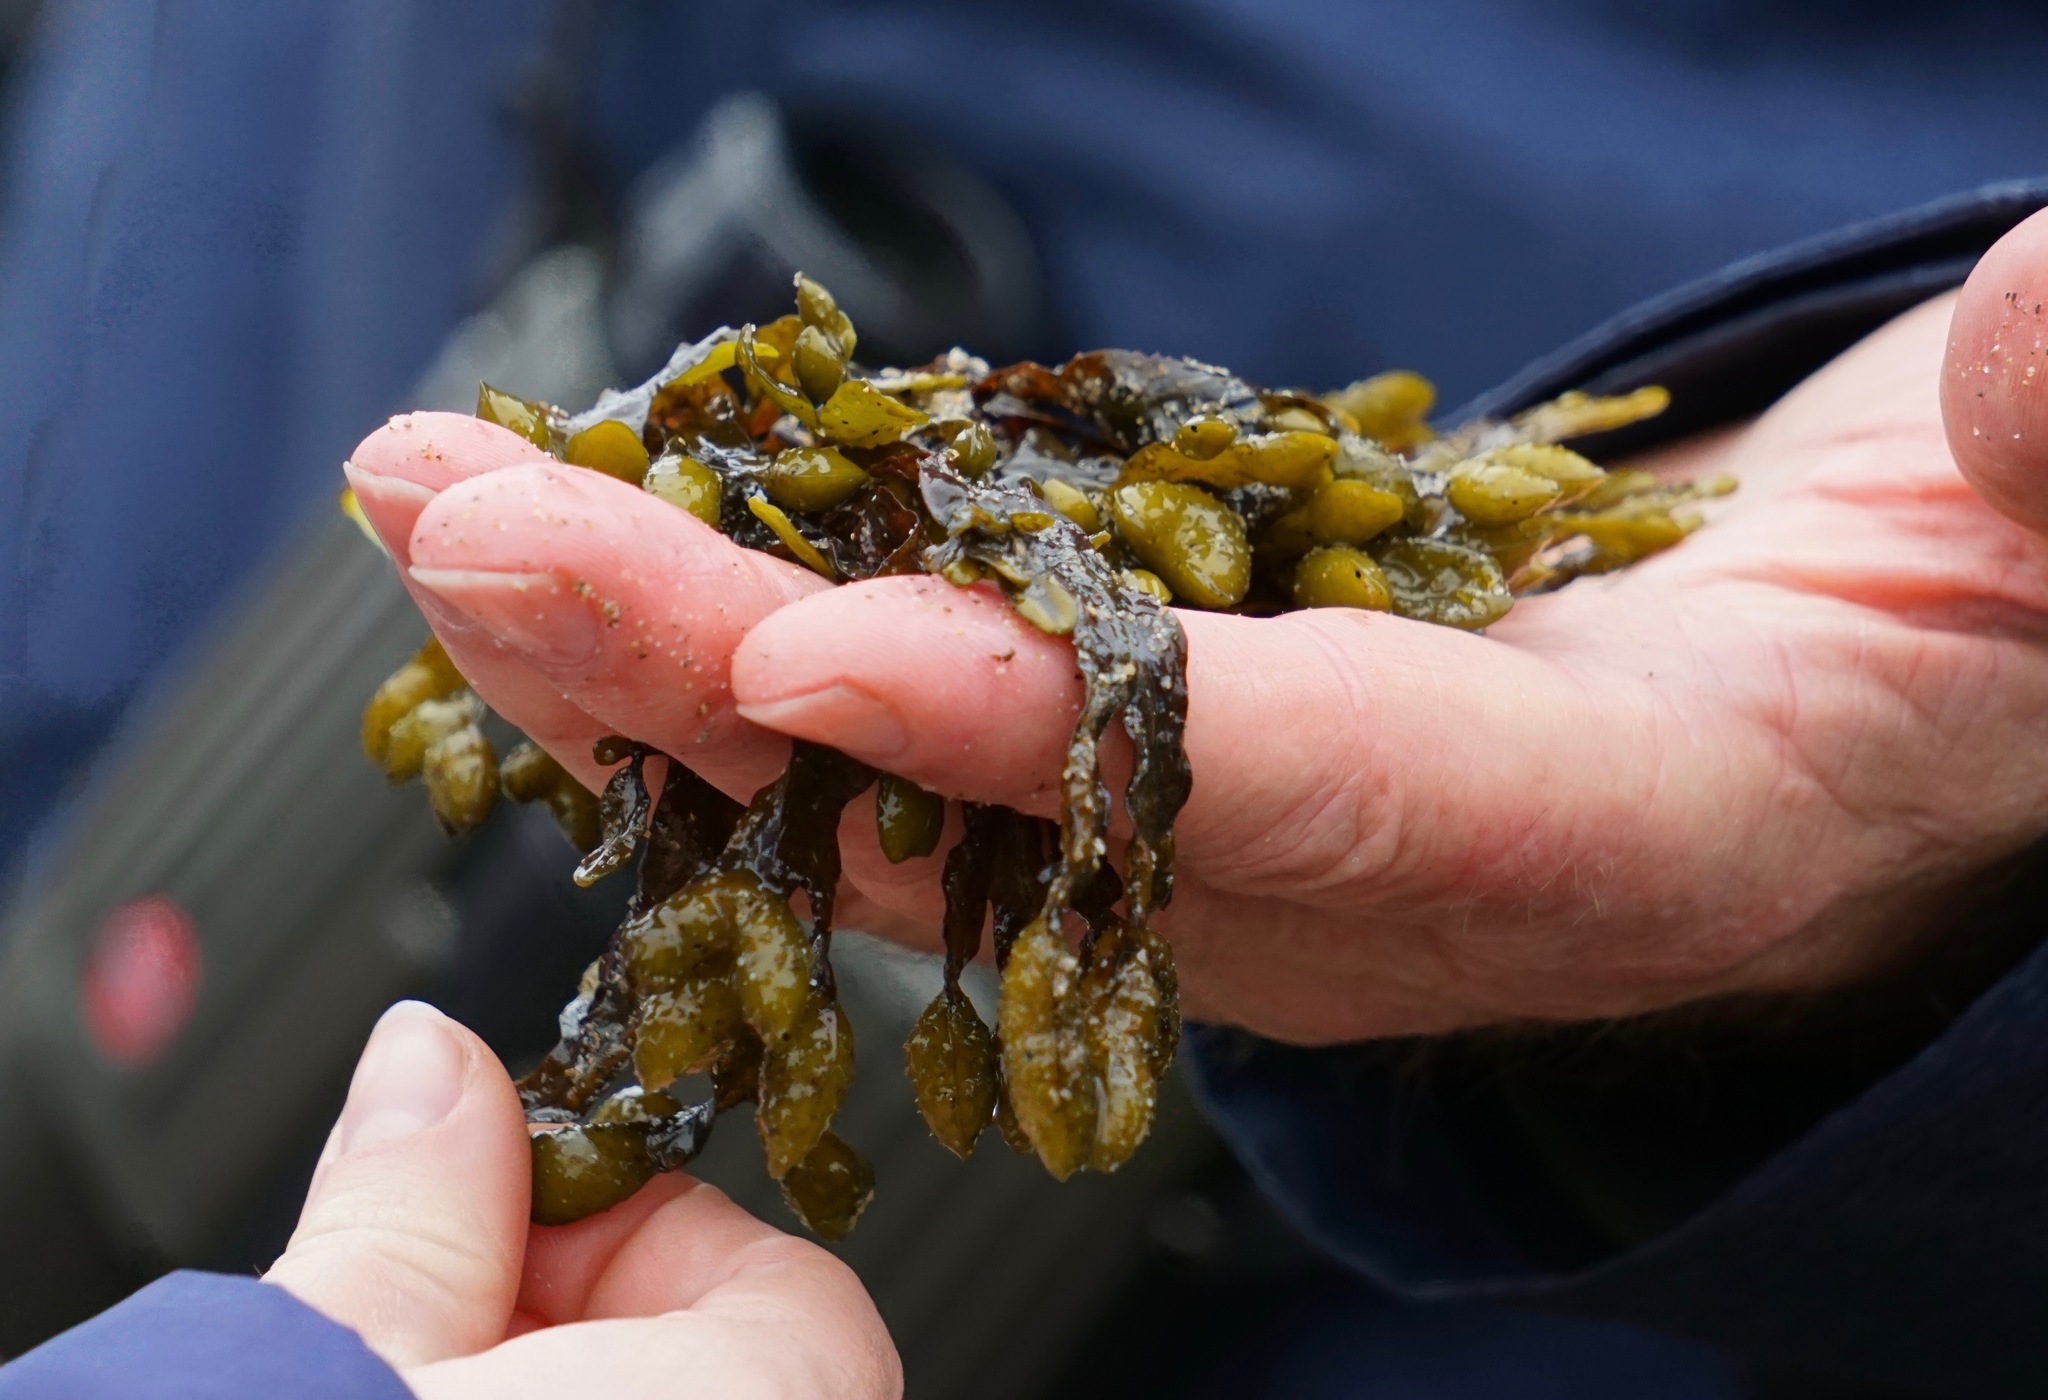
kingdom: Chromista
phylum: Ochrophyta
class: Phaeophyceae
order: Fucales
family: Fucaceae
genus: Fucus
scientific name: Fucus distichus
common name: Rockweed
